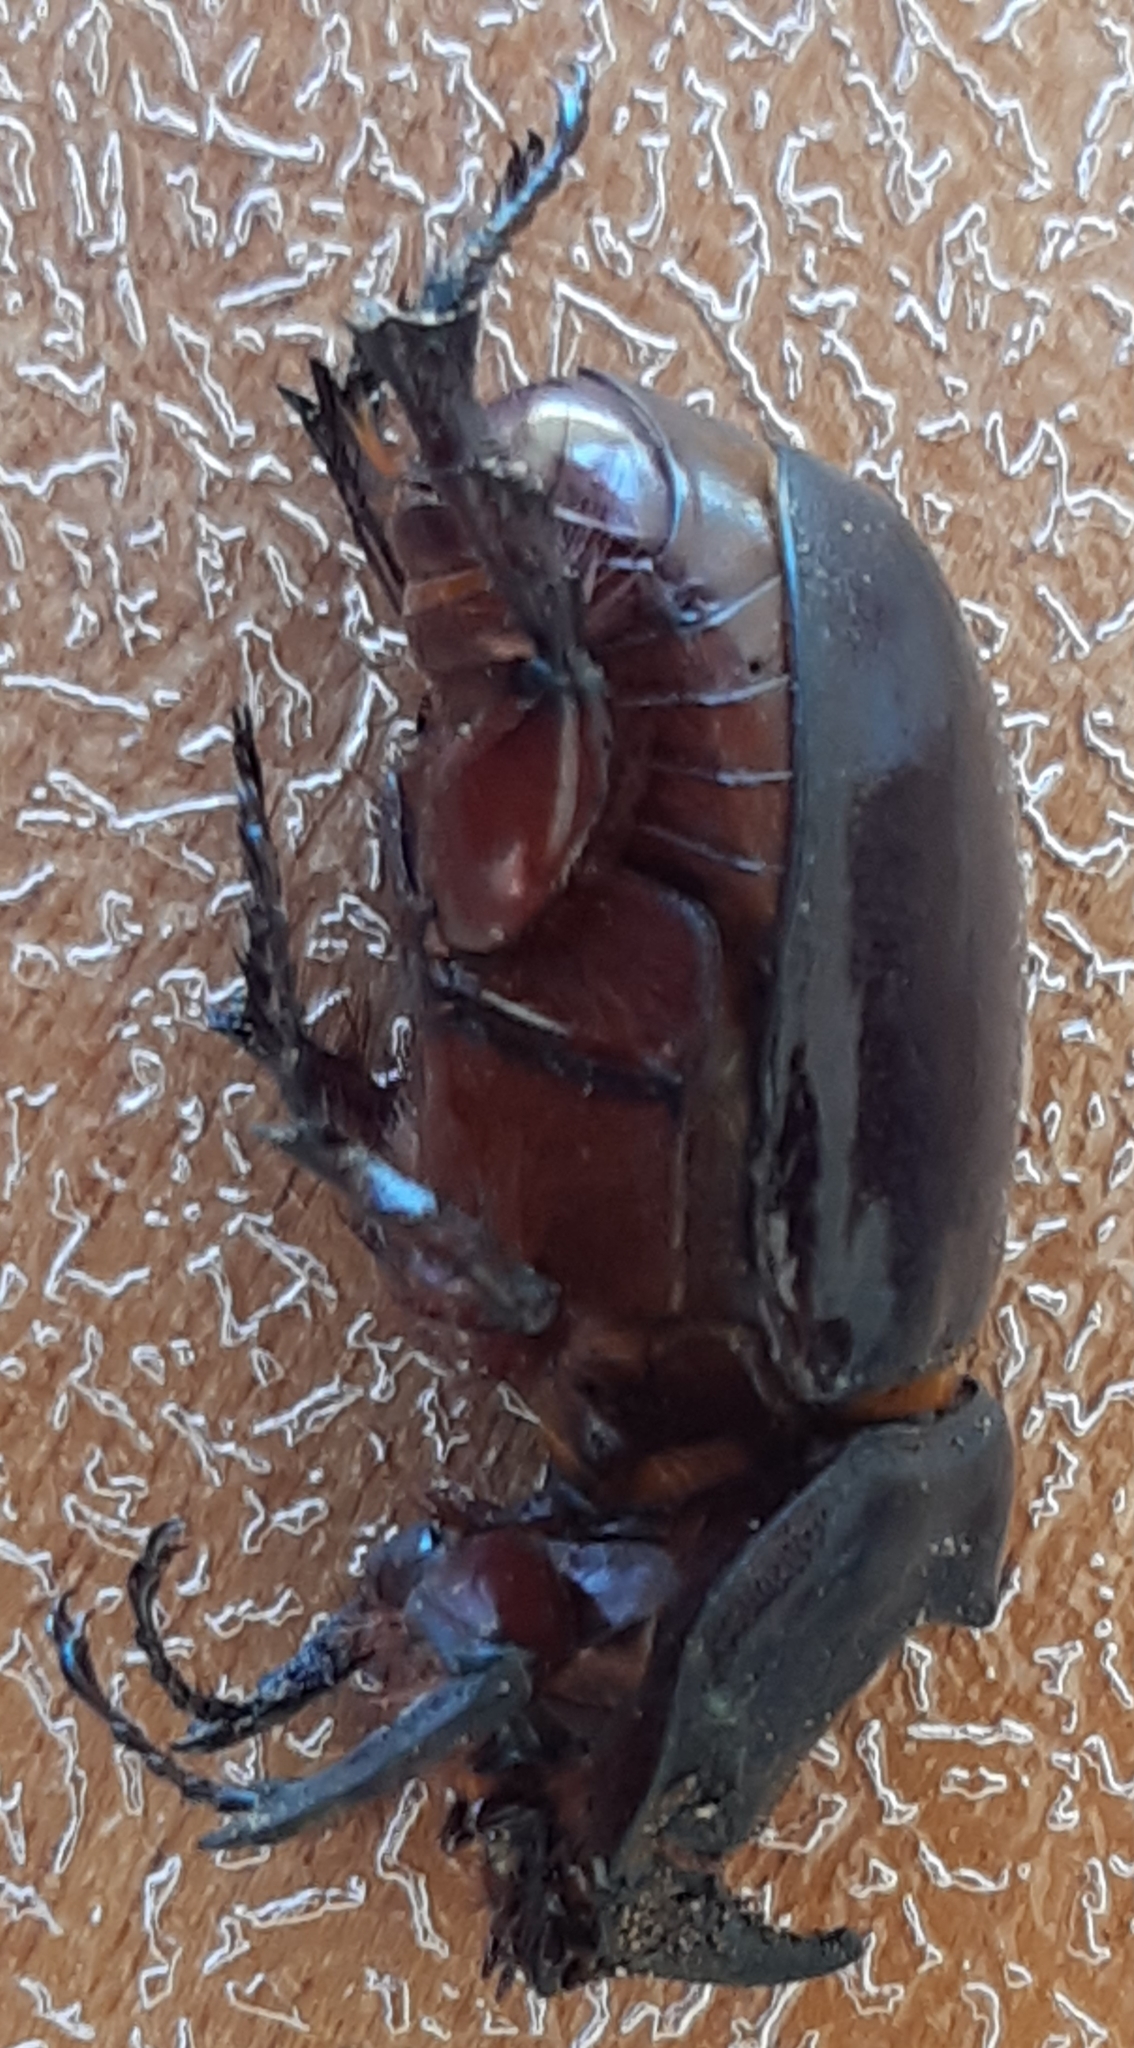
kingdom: Animalia
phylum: Arthropoda
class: Insecta
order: Coleoptera
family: Scarabaeidae
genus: Oryctes
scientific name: Oryctes nasicornis
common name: European rhinoceros beetle
